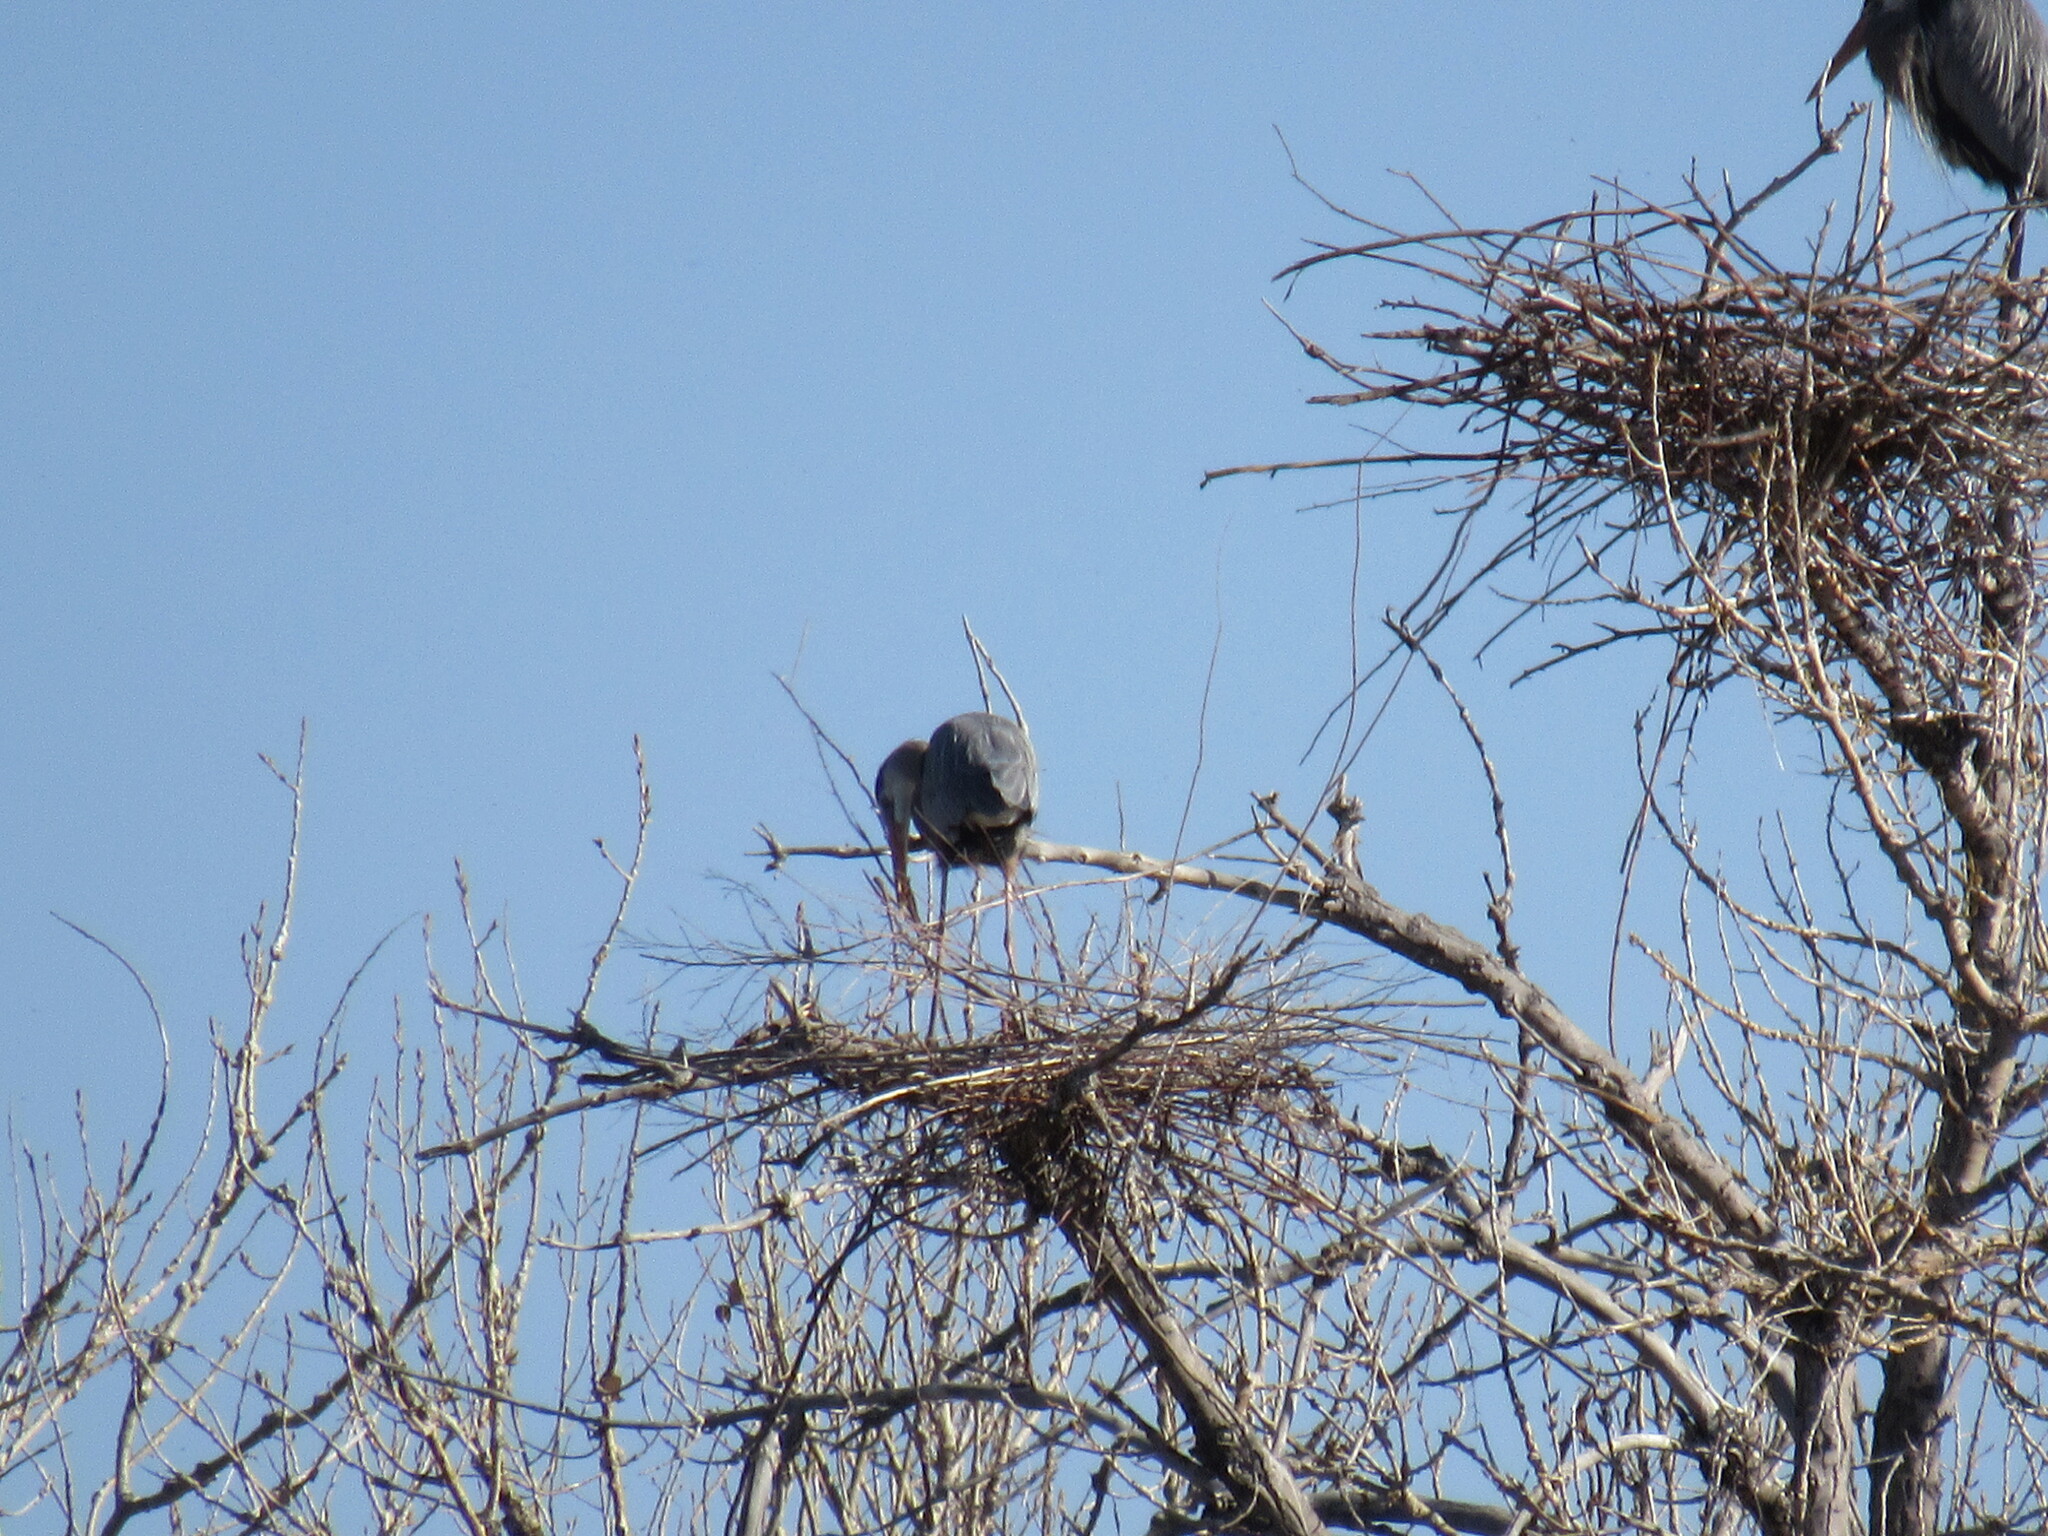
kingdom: Animalia
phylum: Chordata
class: Aves
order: Pelecaniformes
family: Ardeidae
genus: Ardea
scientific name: Ardea herodias
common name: Great blue heron
